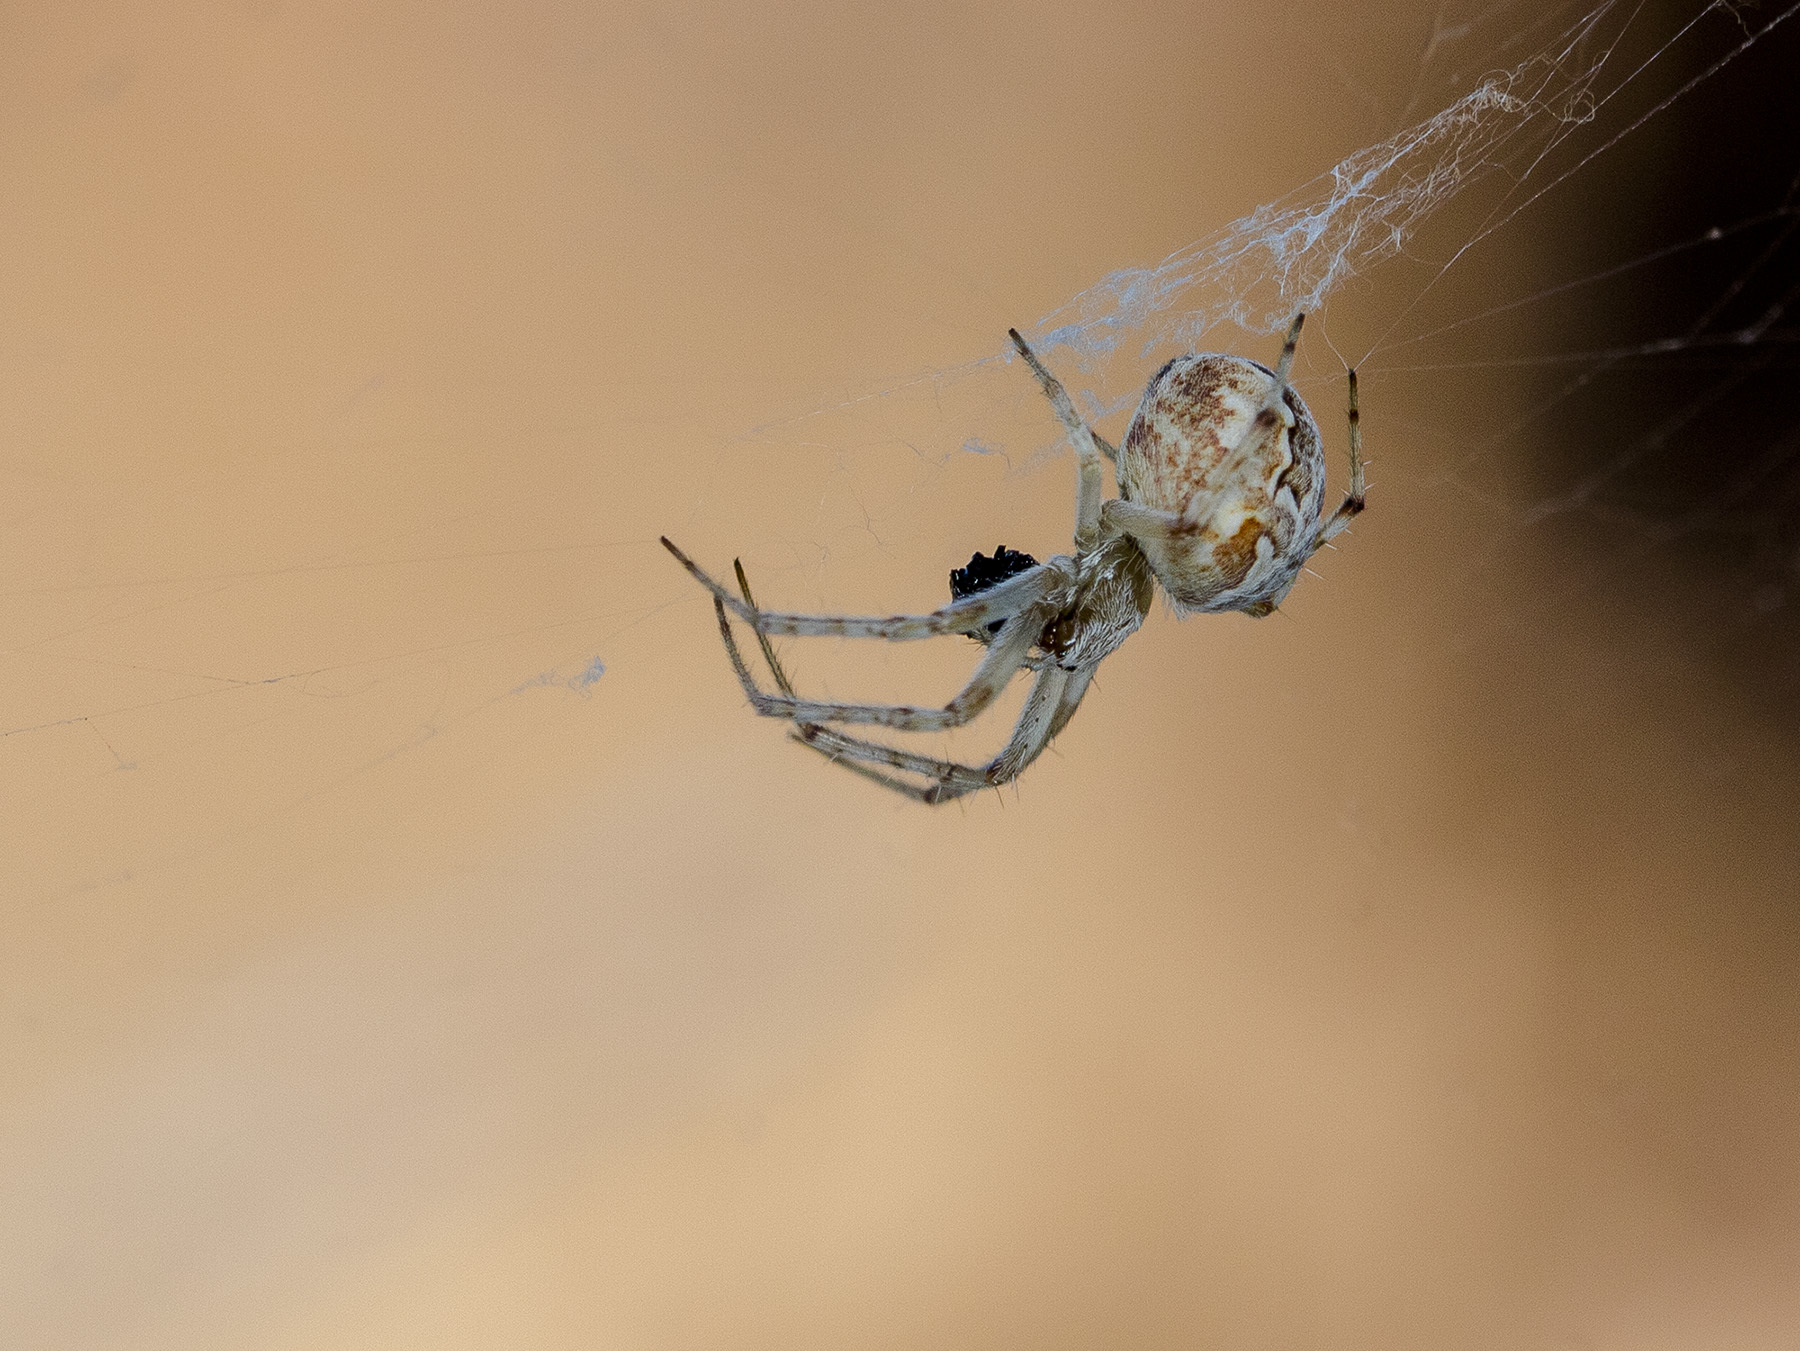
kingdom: Animalia
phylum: Arthropoda
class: Arachnida
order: Araneae
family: Araneidae
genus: Araneus
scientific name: Araneus pallasi
